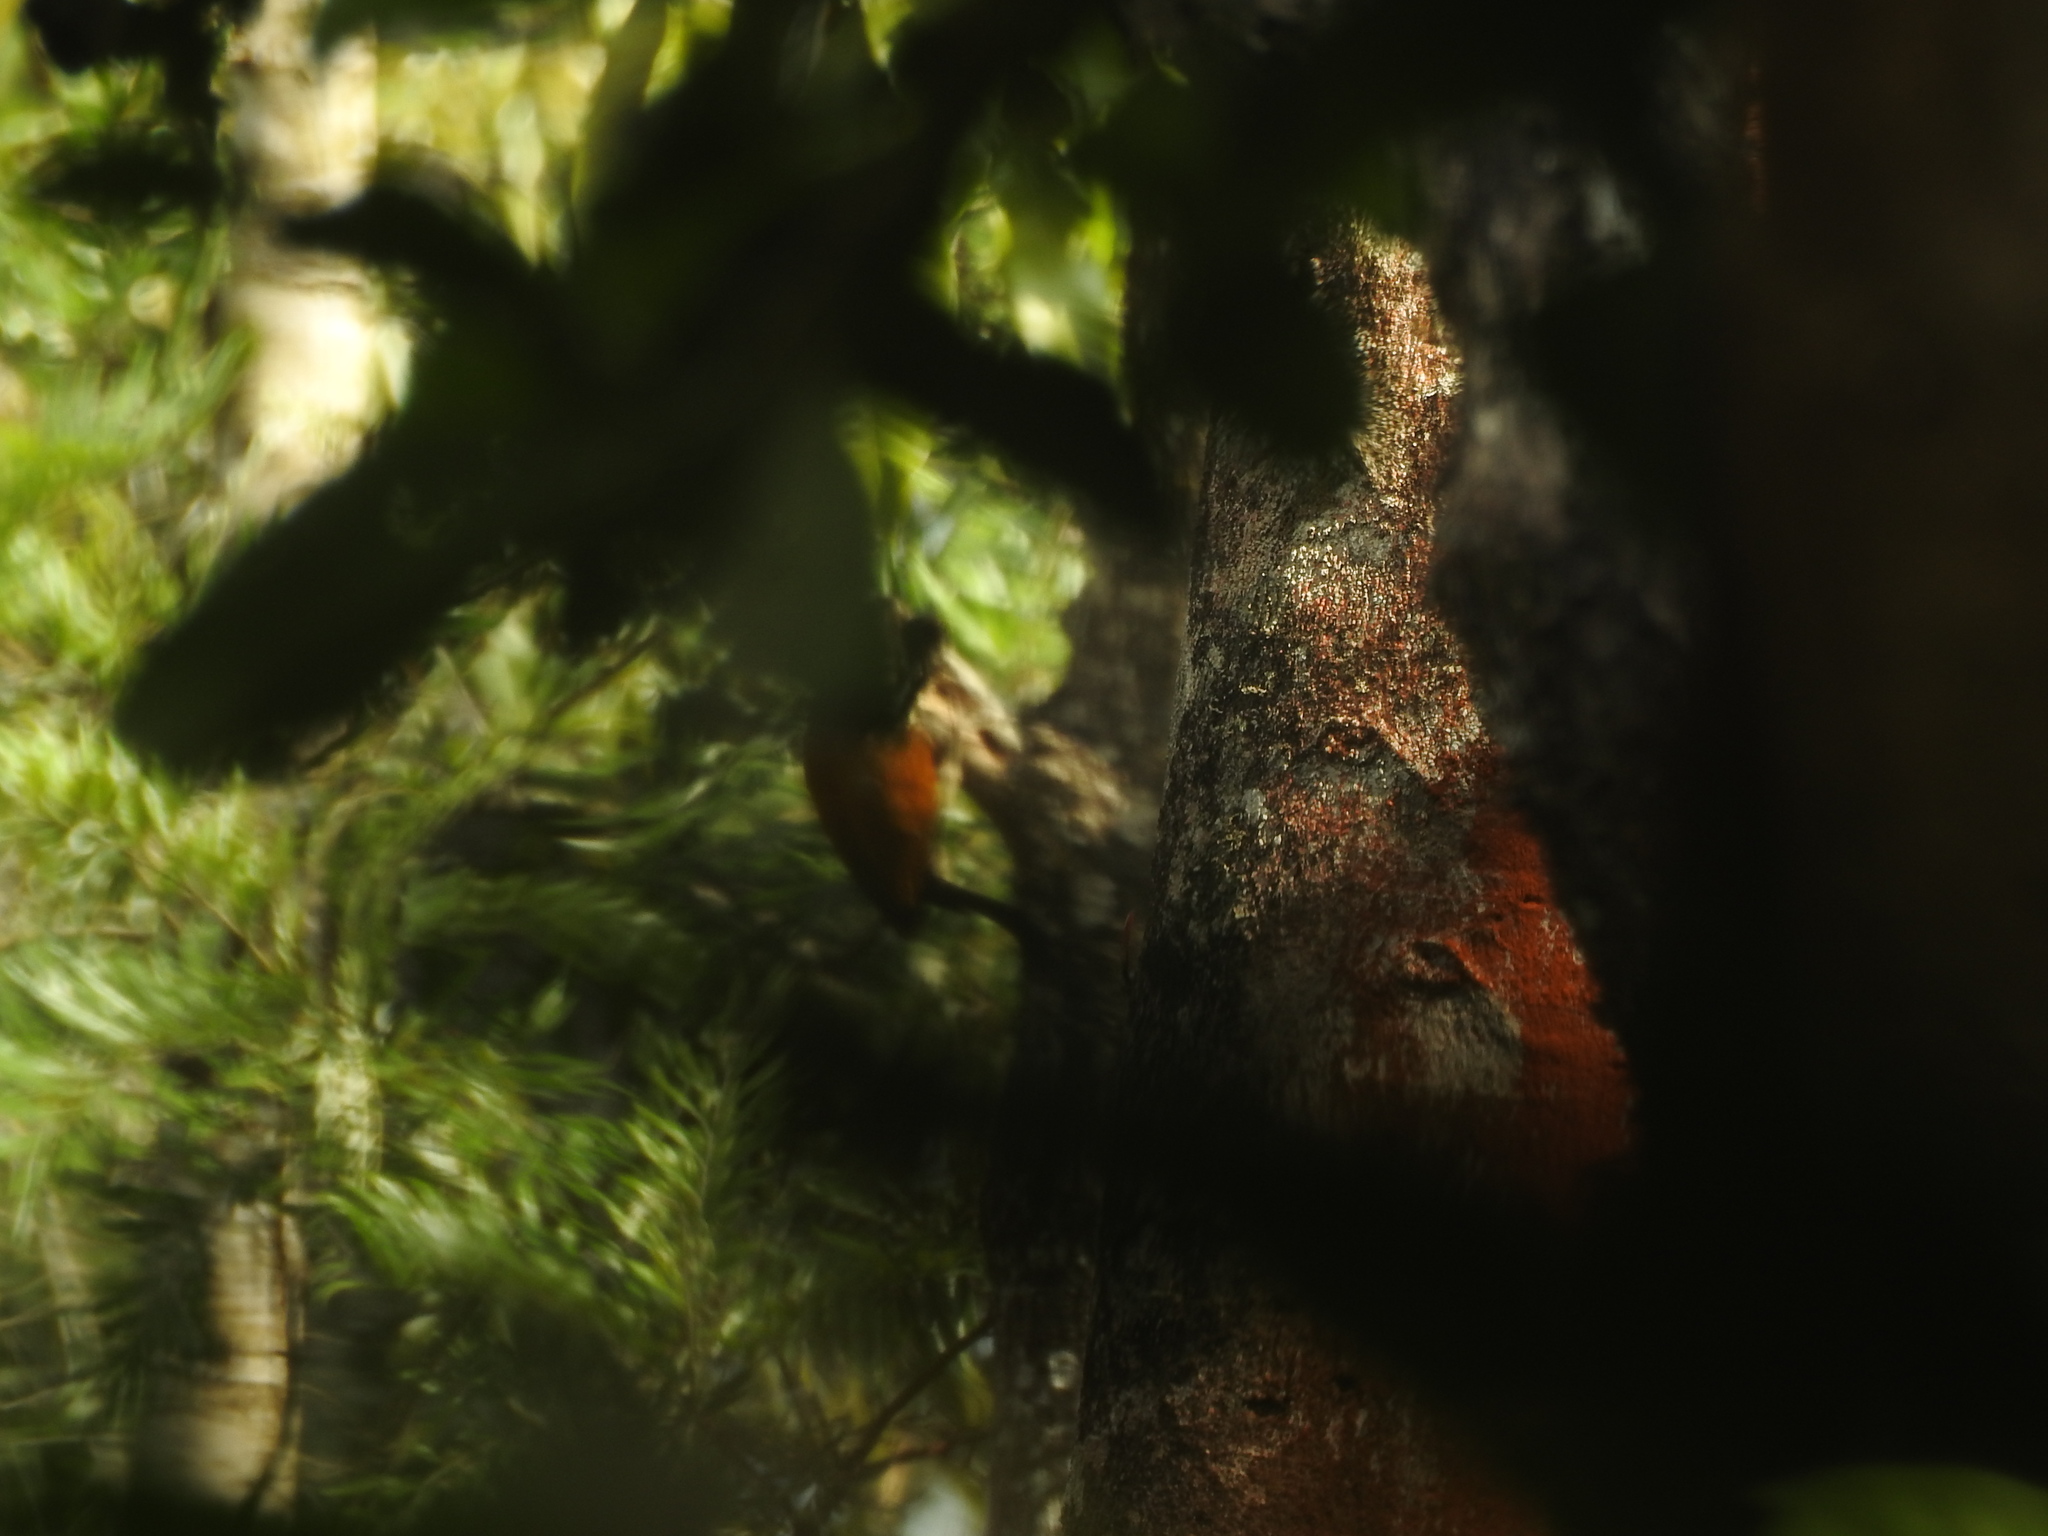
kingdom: Animalia
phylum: Chordata
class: Aves
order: Piciformes
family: Picidae
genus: Chrysocolaptes
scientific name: Chrysocolaptes socialis
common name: Malabar flameback
